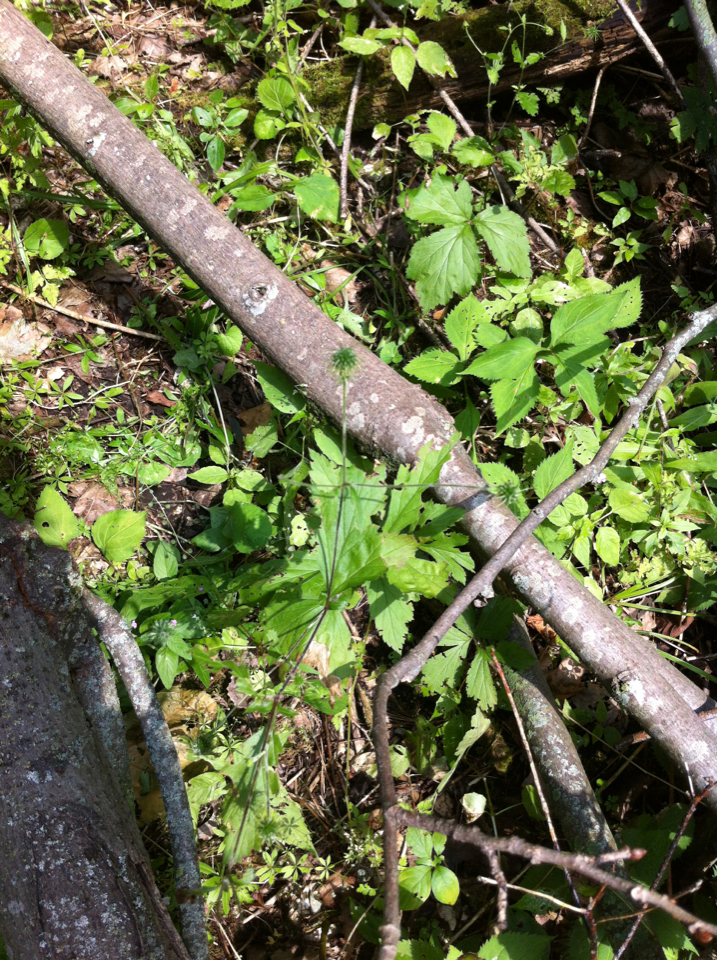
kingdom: Plantae
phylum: Tracheophyta
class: Magnoliopsida
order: Rosales
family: Rosaceae
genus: Geum
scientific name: Geum canadense
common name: White avens
